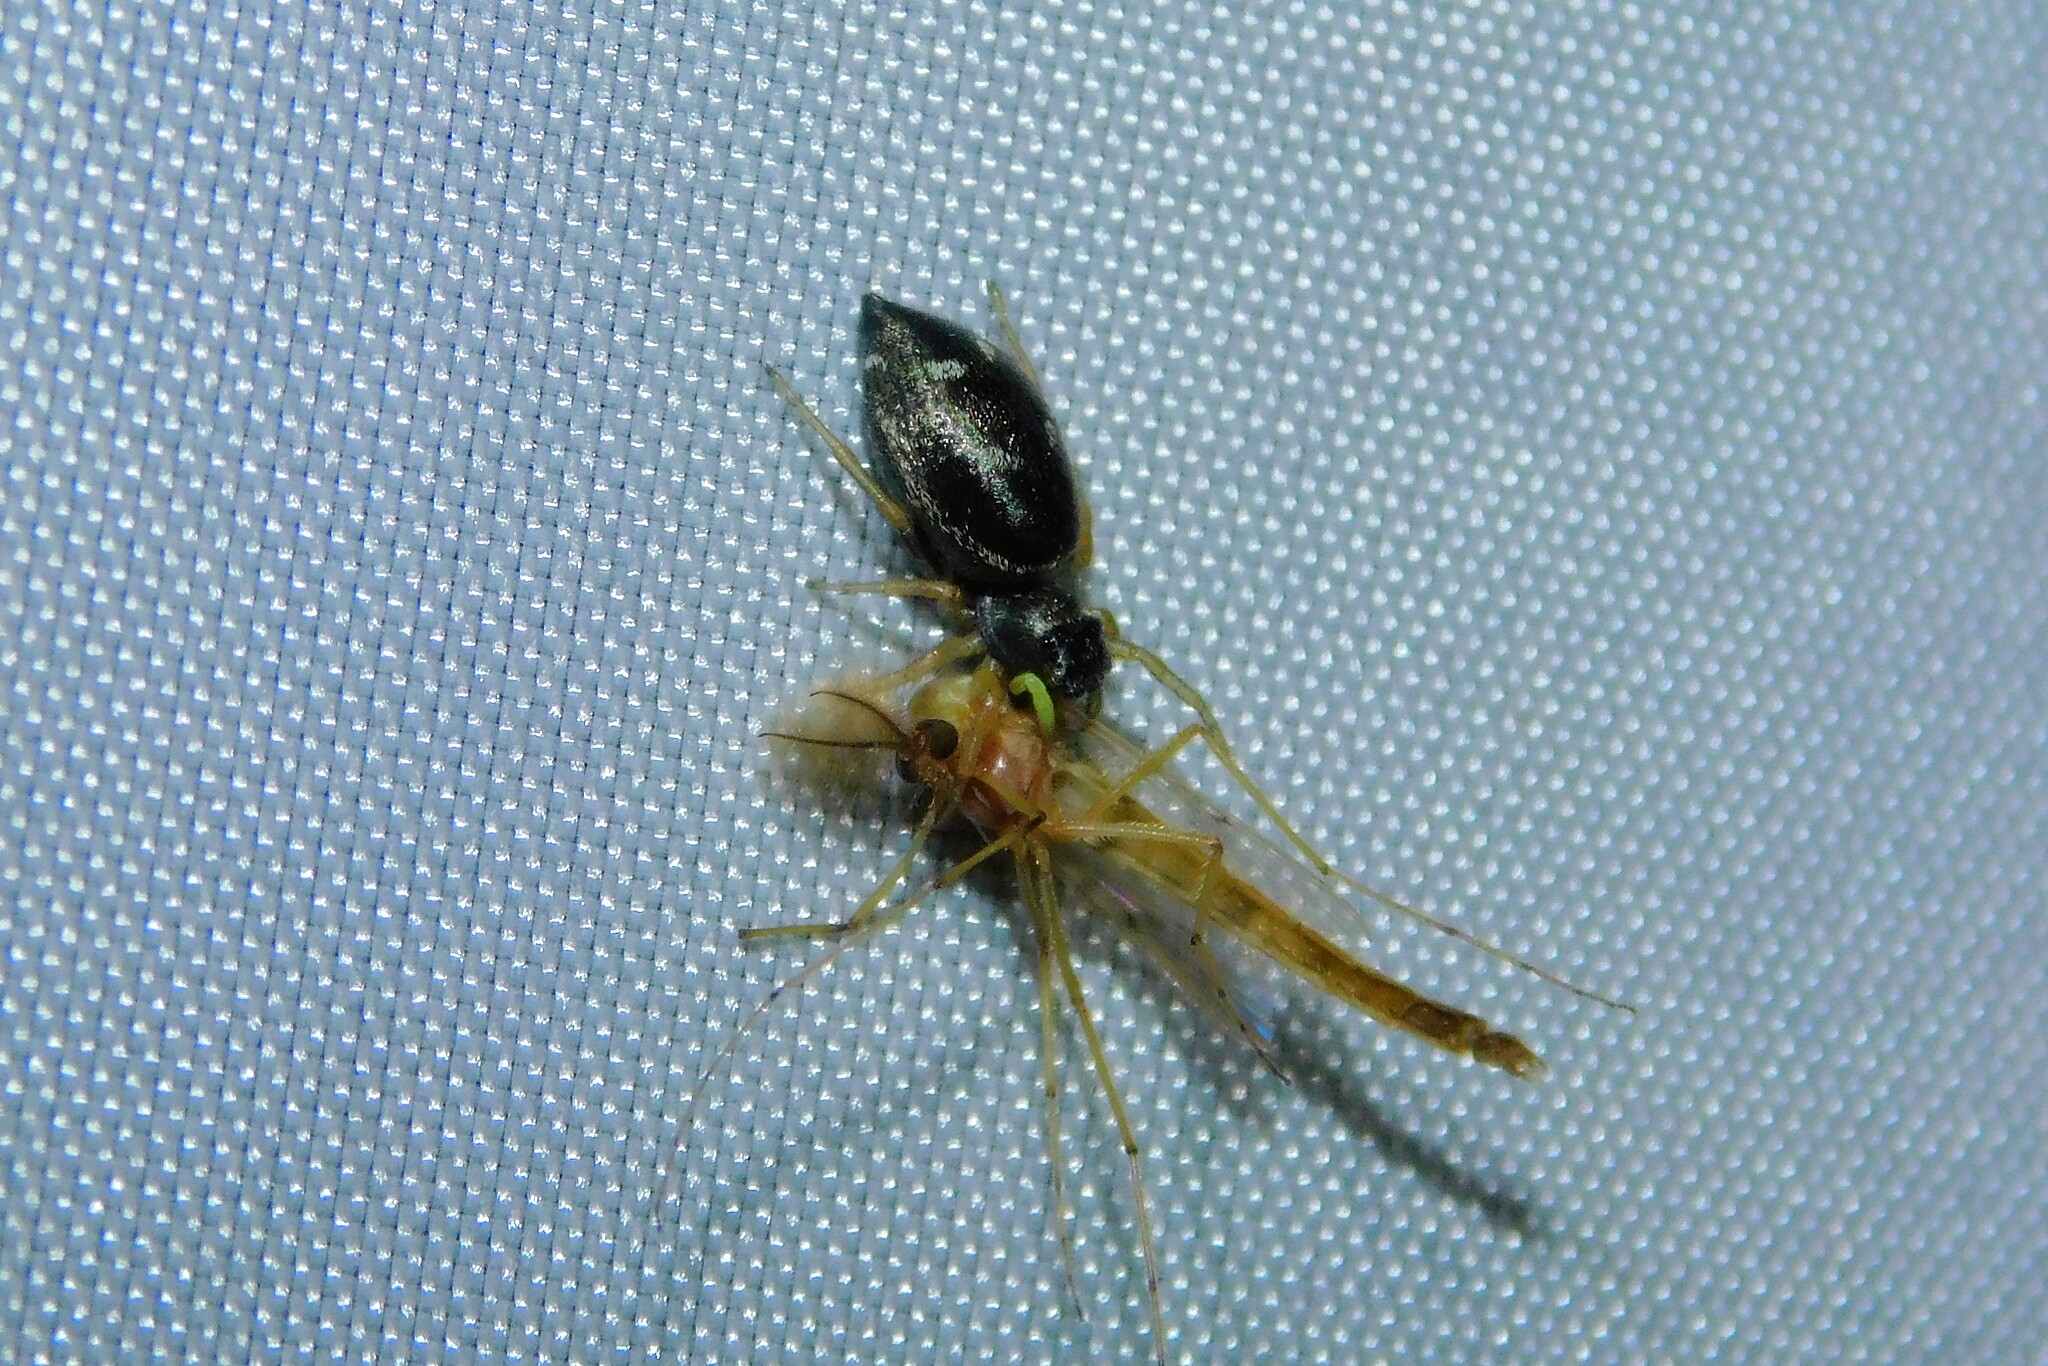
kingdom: Animalia
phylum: Arthropoda
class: Arachnida
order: Araneae
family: Salticidae
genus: Heliophanus
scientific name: Heliophanus cupreus
